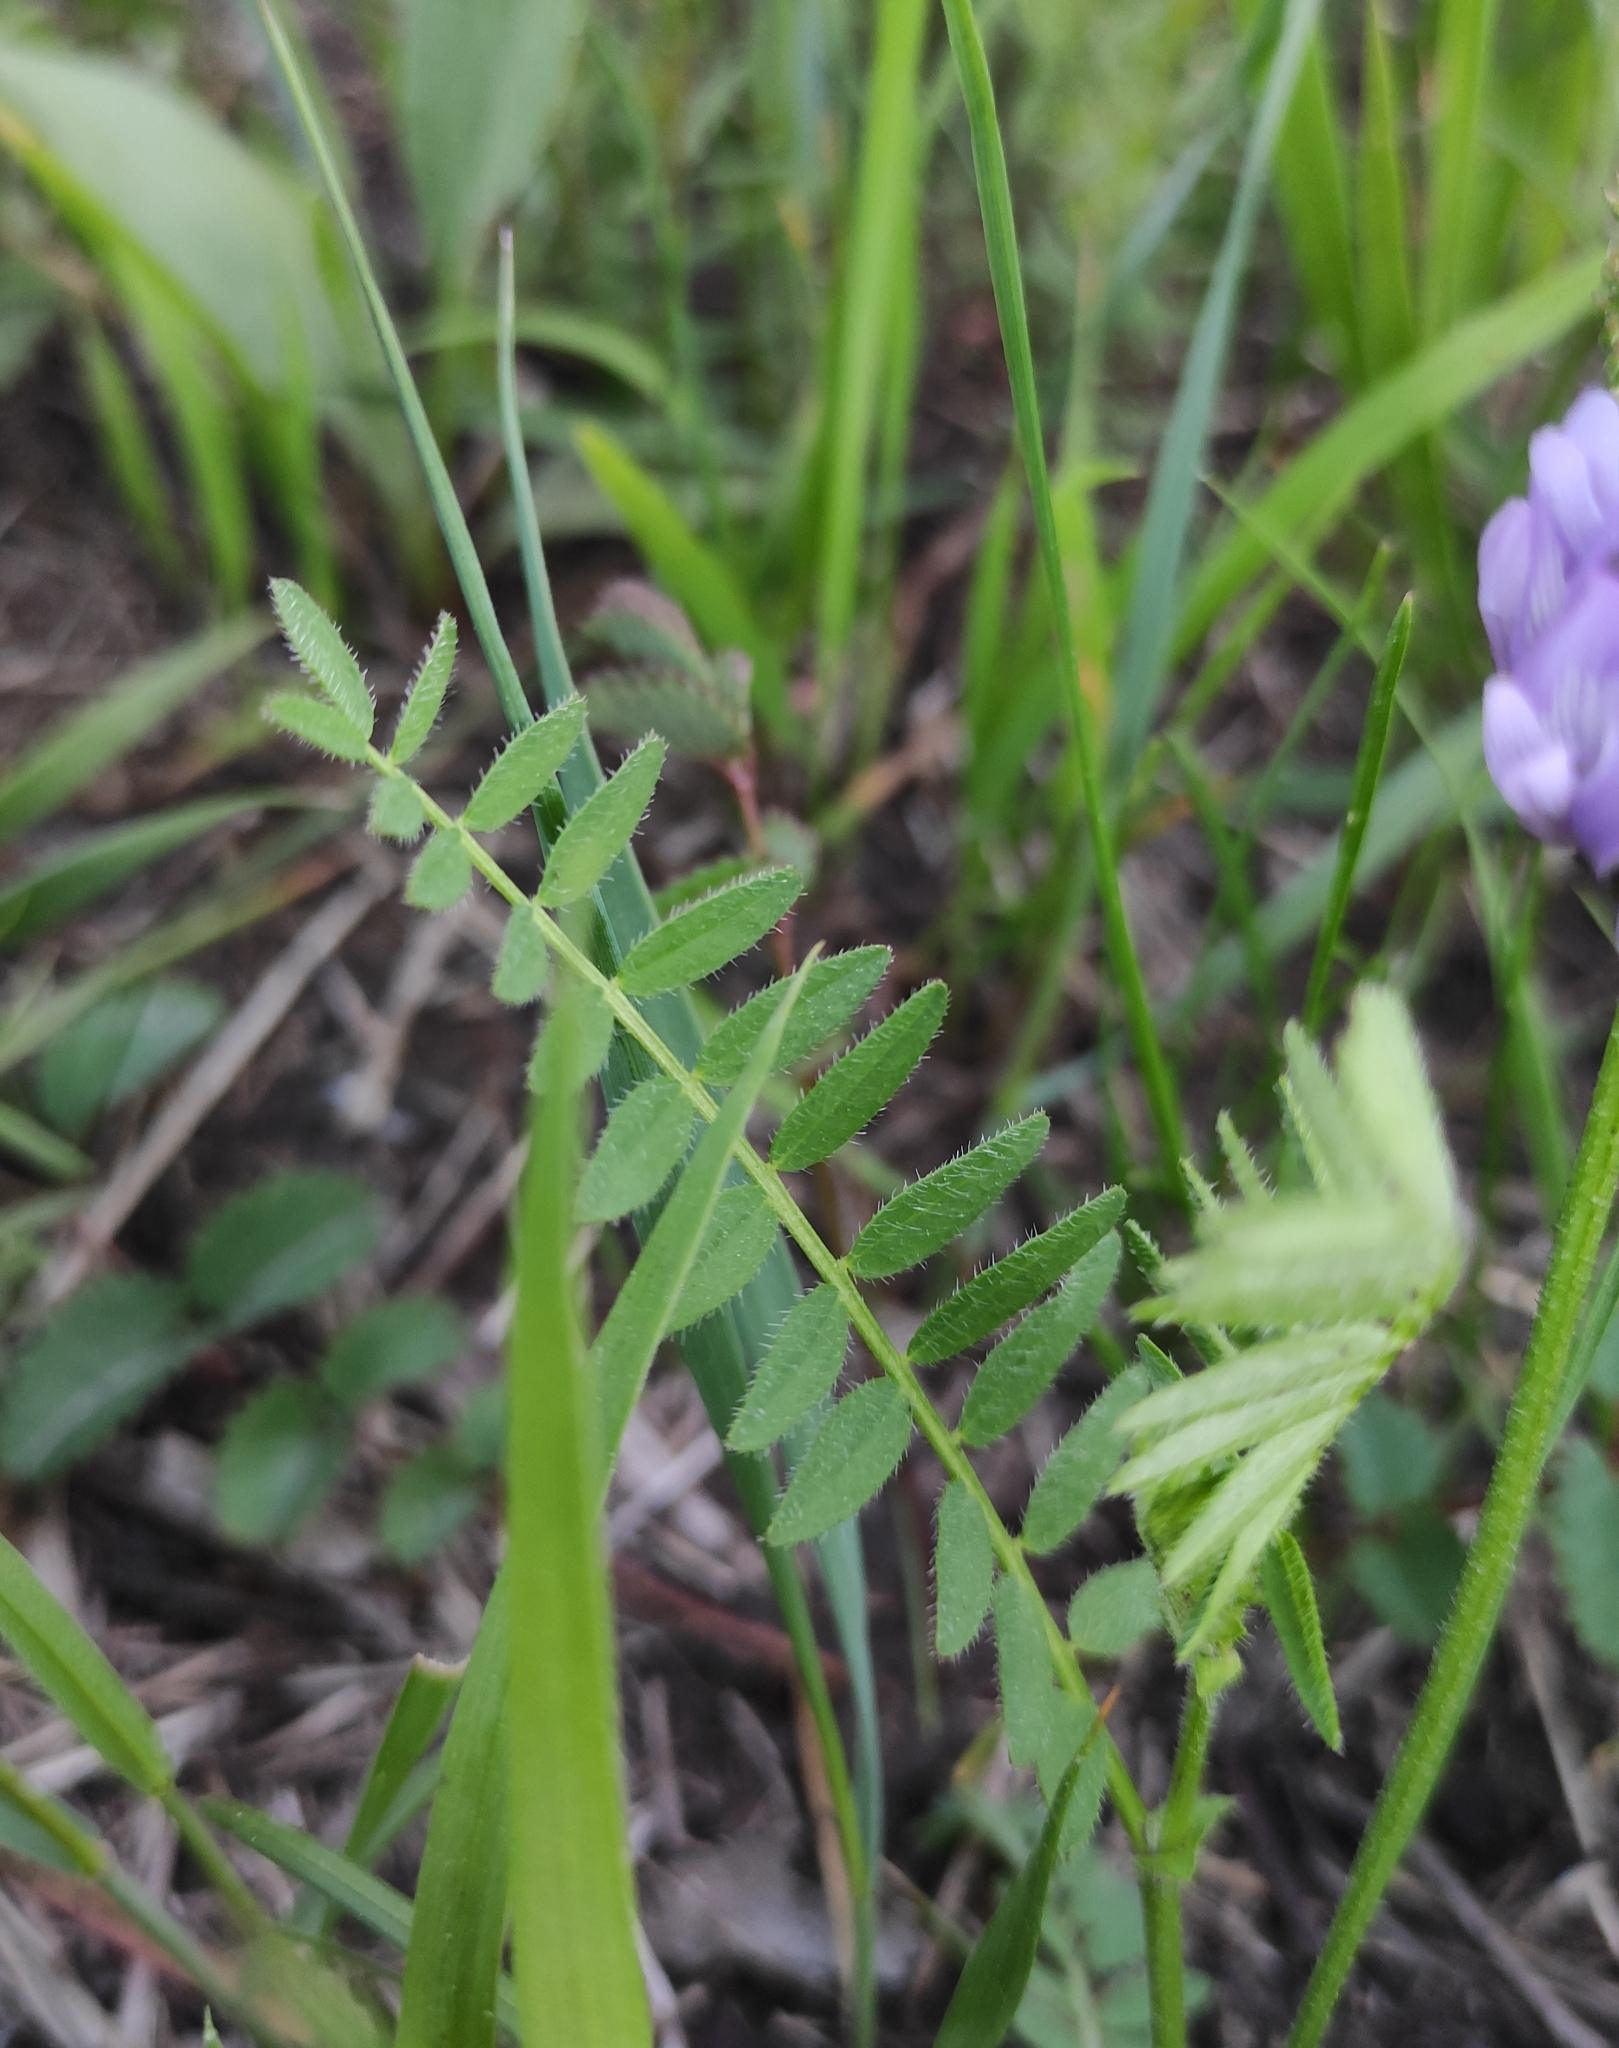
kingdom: Plantae
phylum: Tracheophyta
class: Magnoliopsida
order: Fabales
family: Fabaceae
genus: Astragalus
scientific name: Astragalus danicus
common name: Purple milk-vetch
